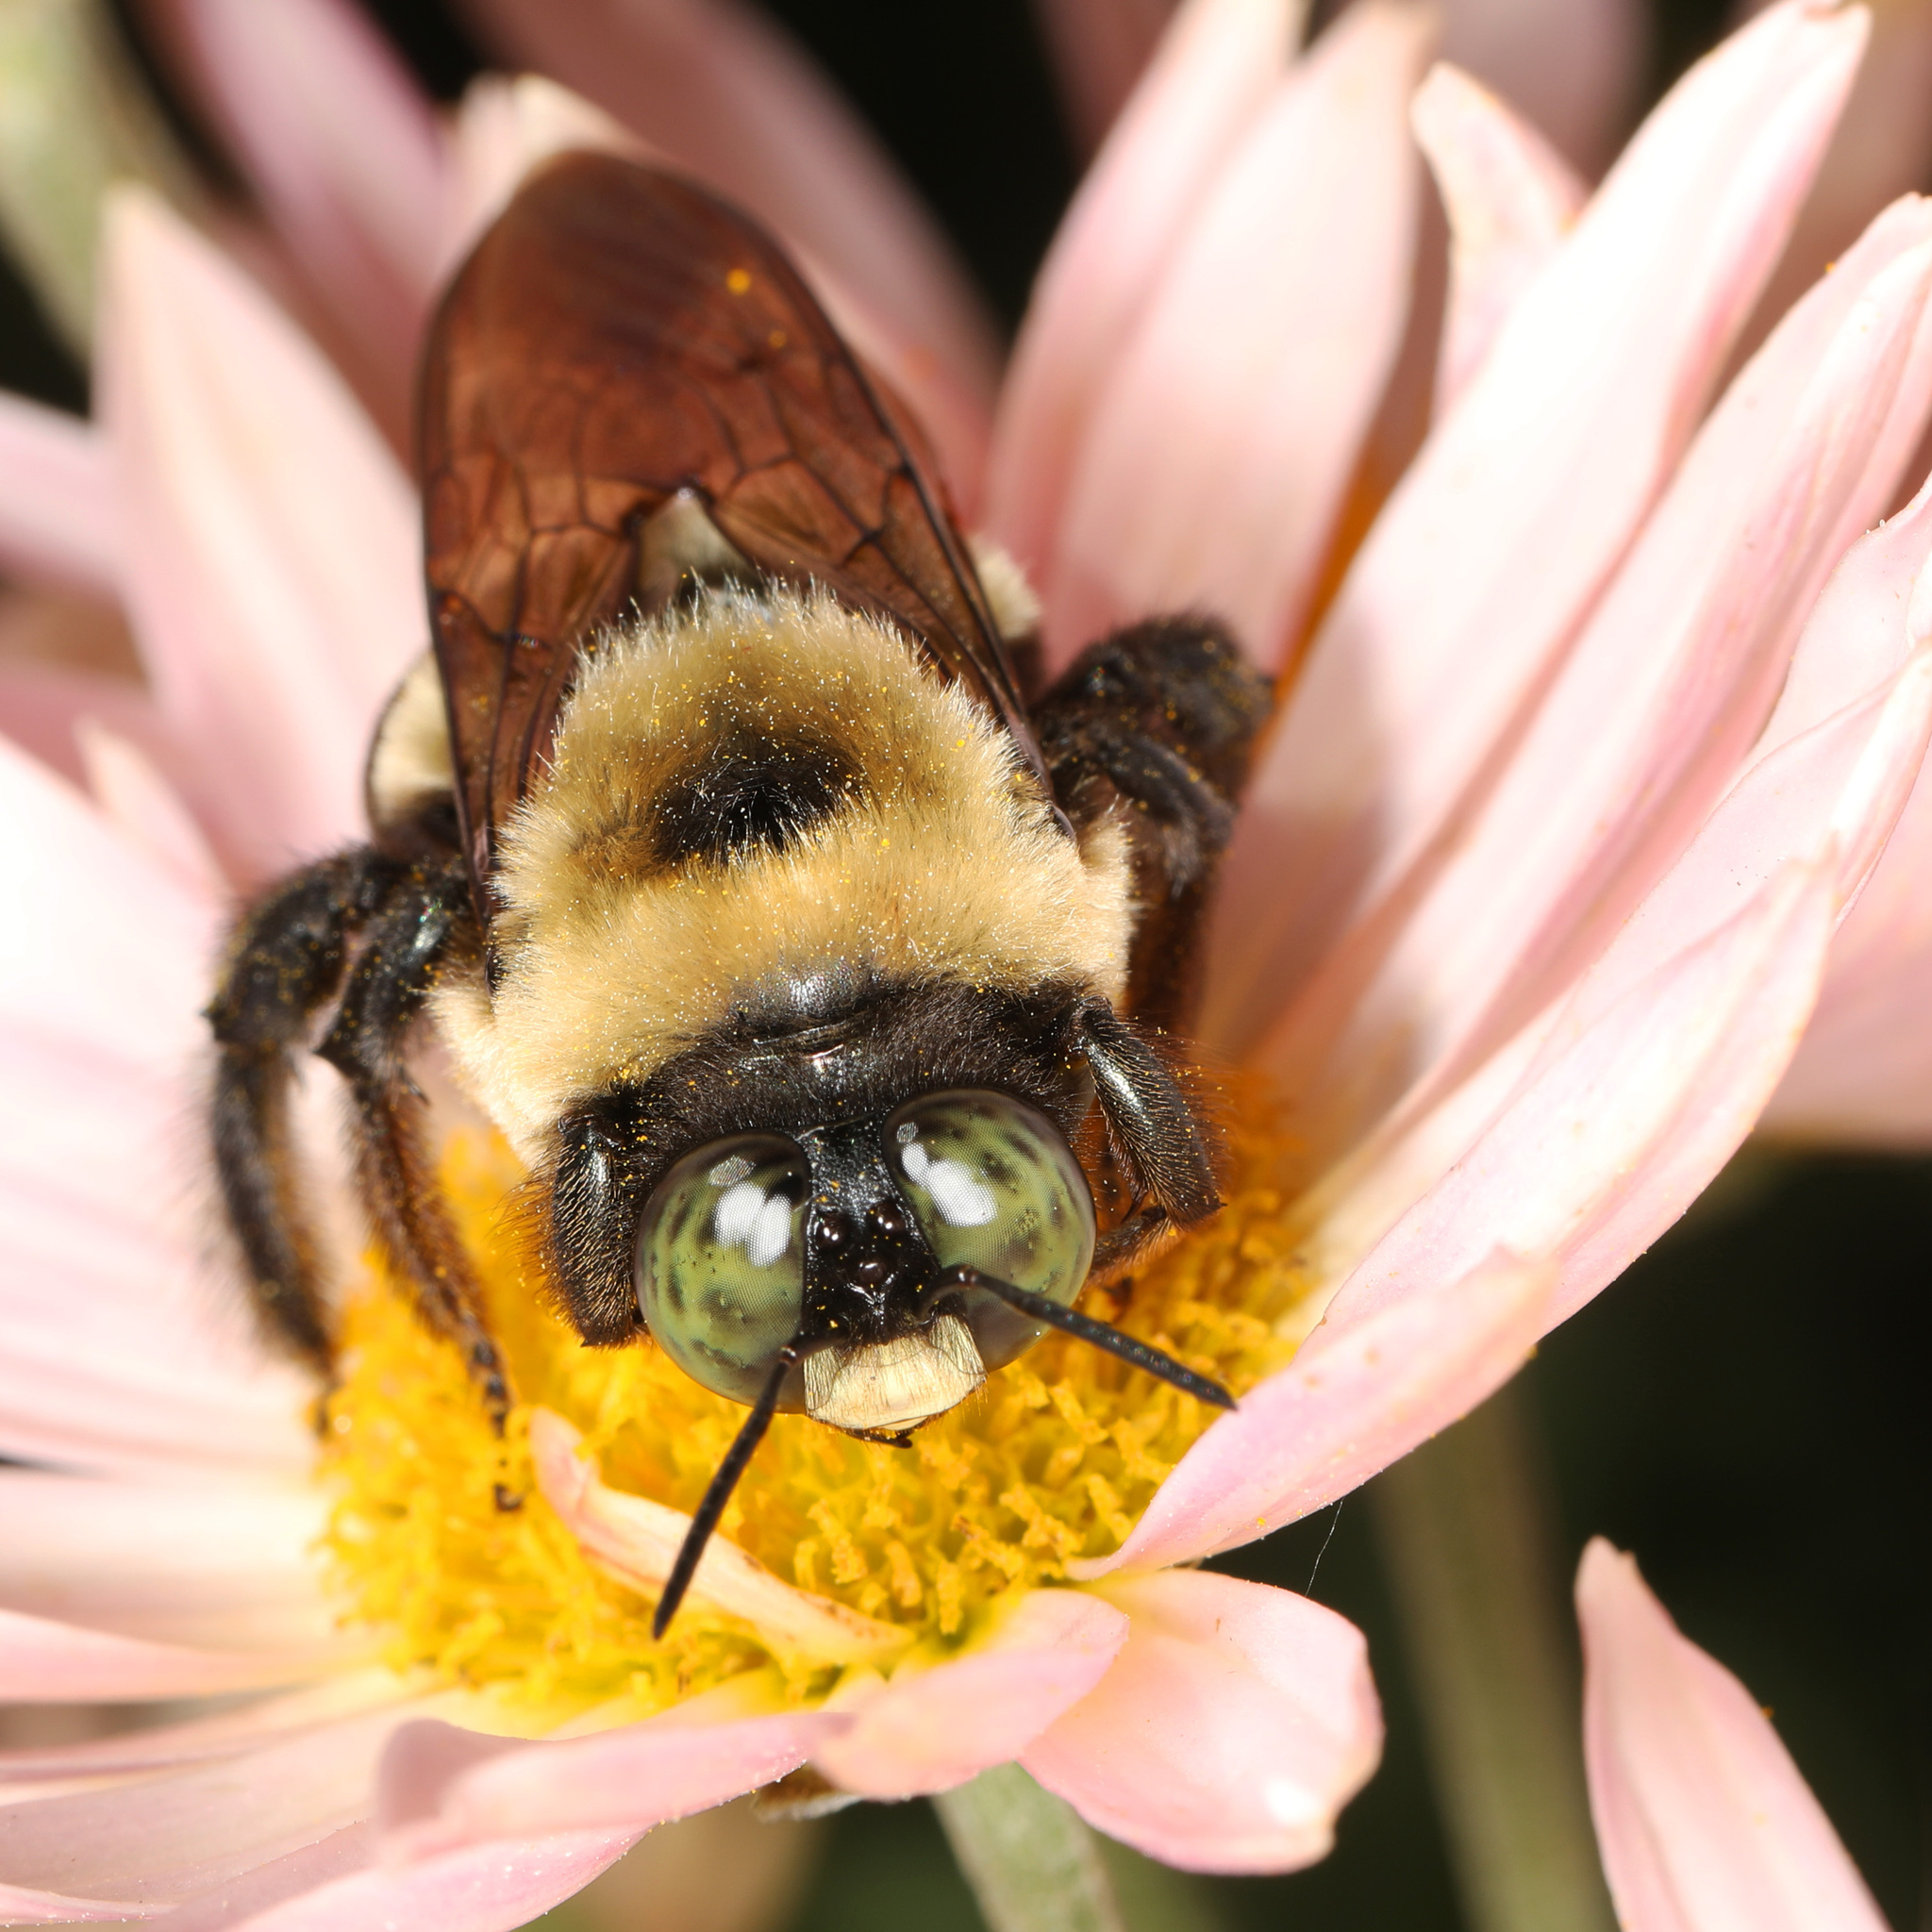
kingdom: Animalia
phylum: Arthropoda
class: Insecta
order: Hymenoptera
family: Apidae
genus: Xylocopa
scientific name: Xylocopa virginica
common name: Carpenter bee
